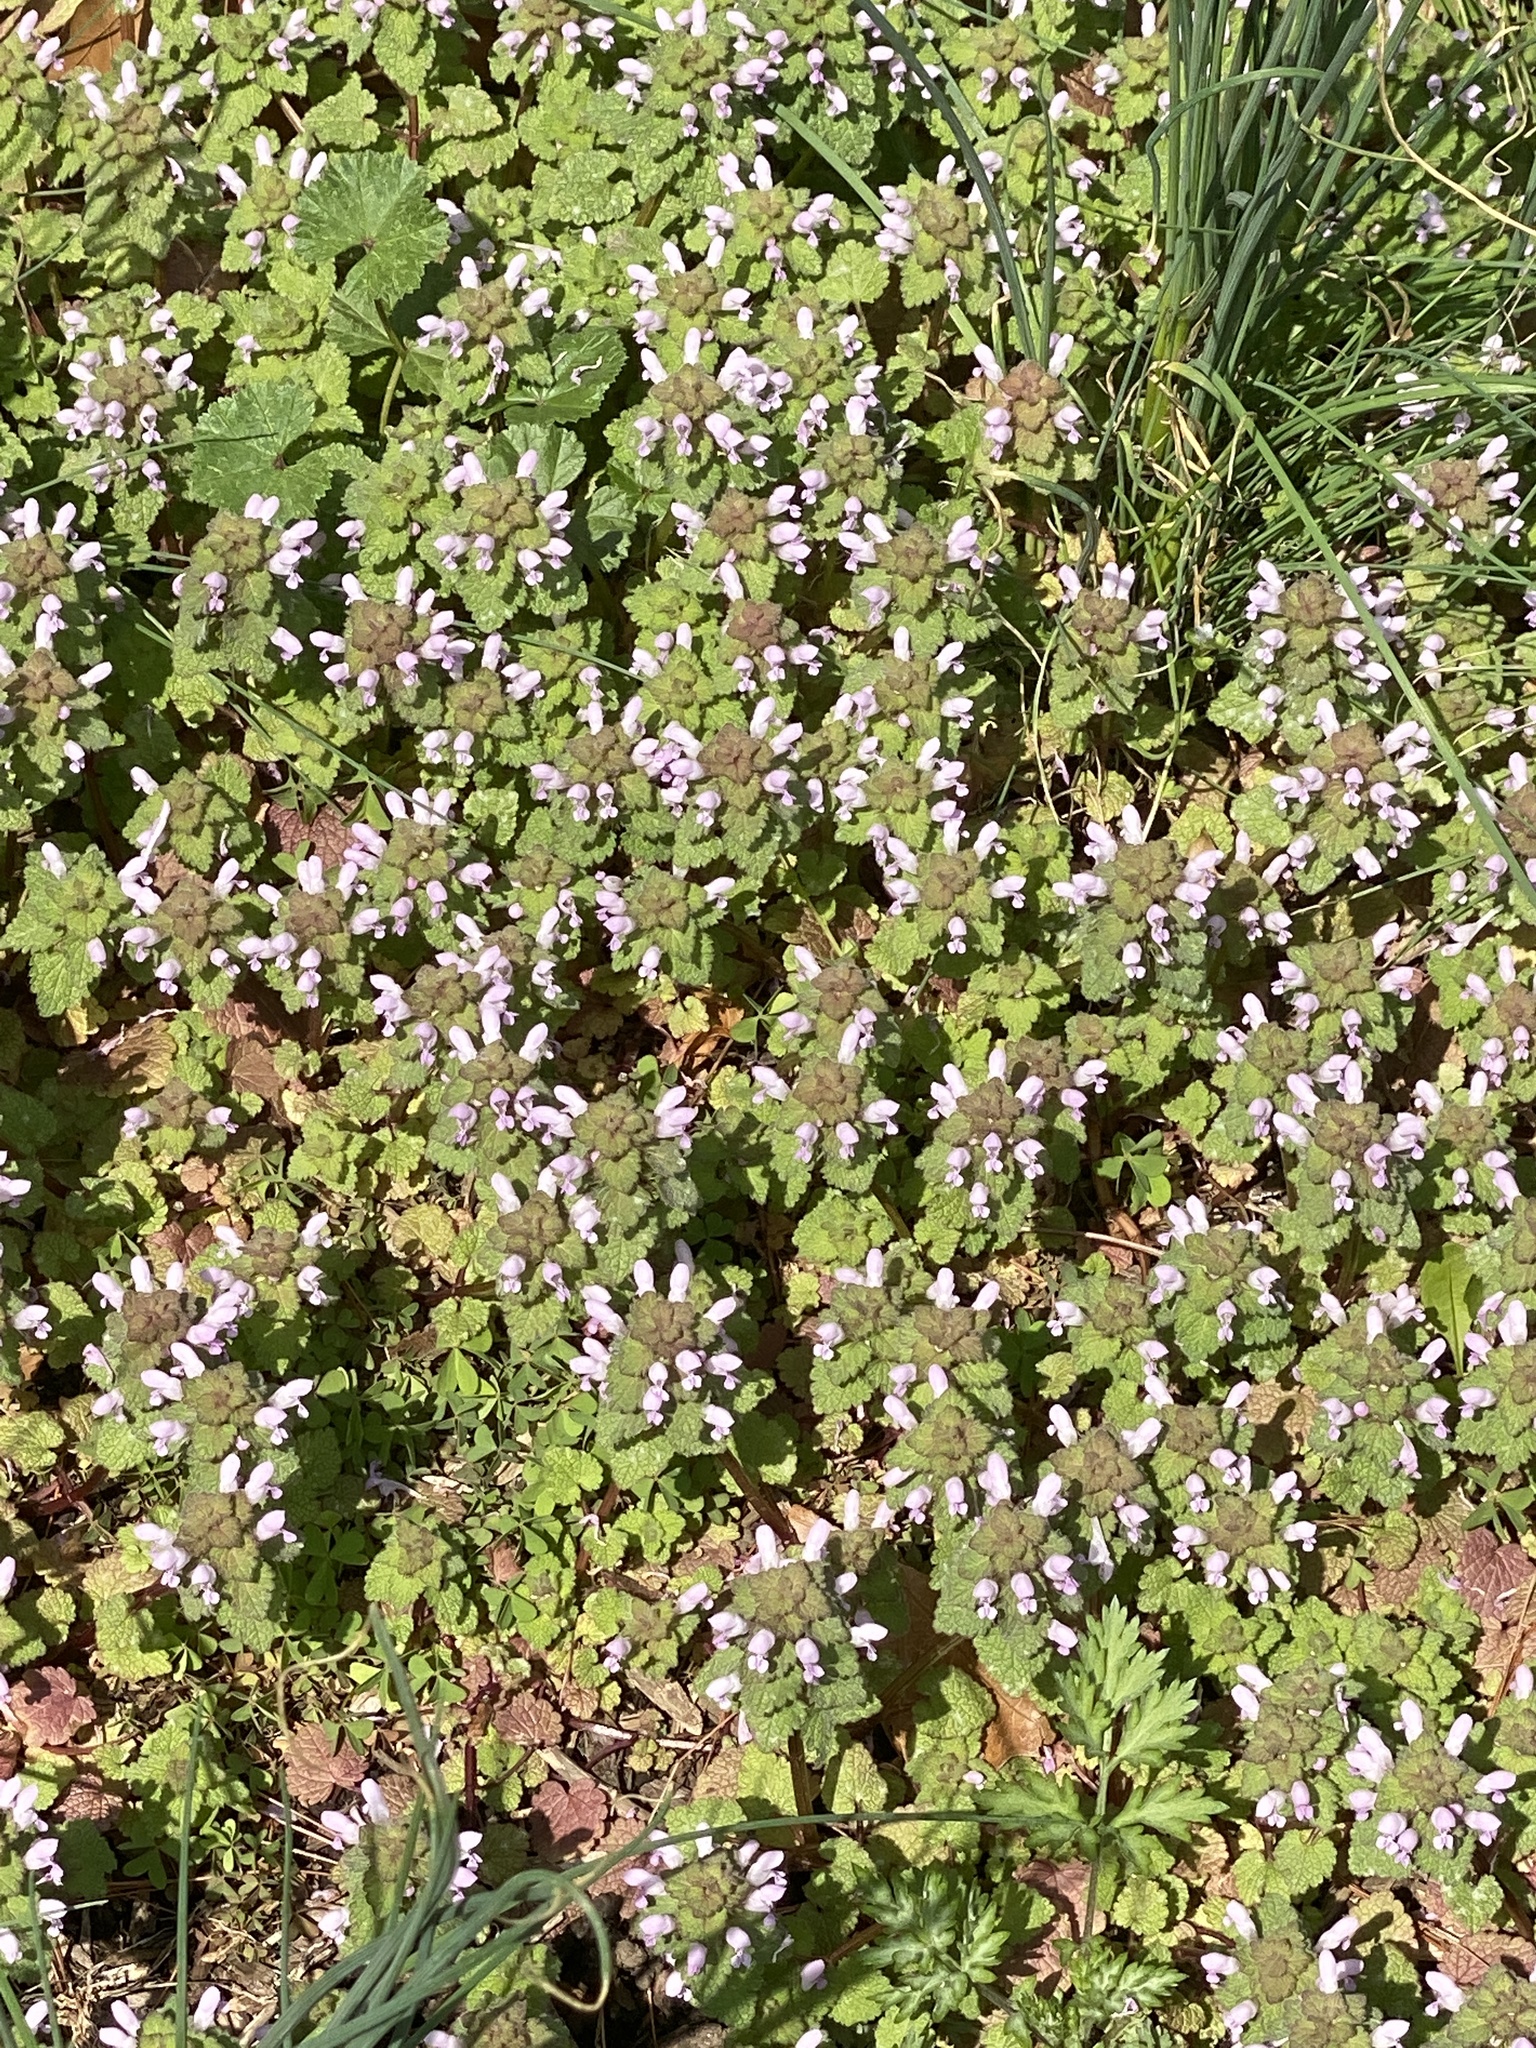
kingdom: Plantae
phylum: Tracheophyta
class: Magnoliopsida
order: Lamiales
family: Lamiaceae
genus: Lamium
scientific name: Lamium purpureum
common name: Red dead-nettle
